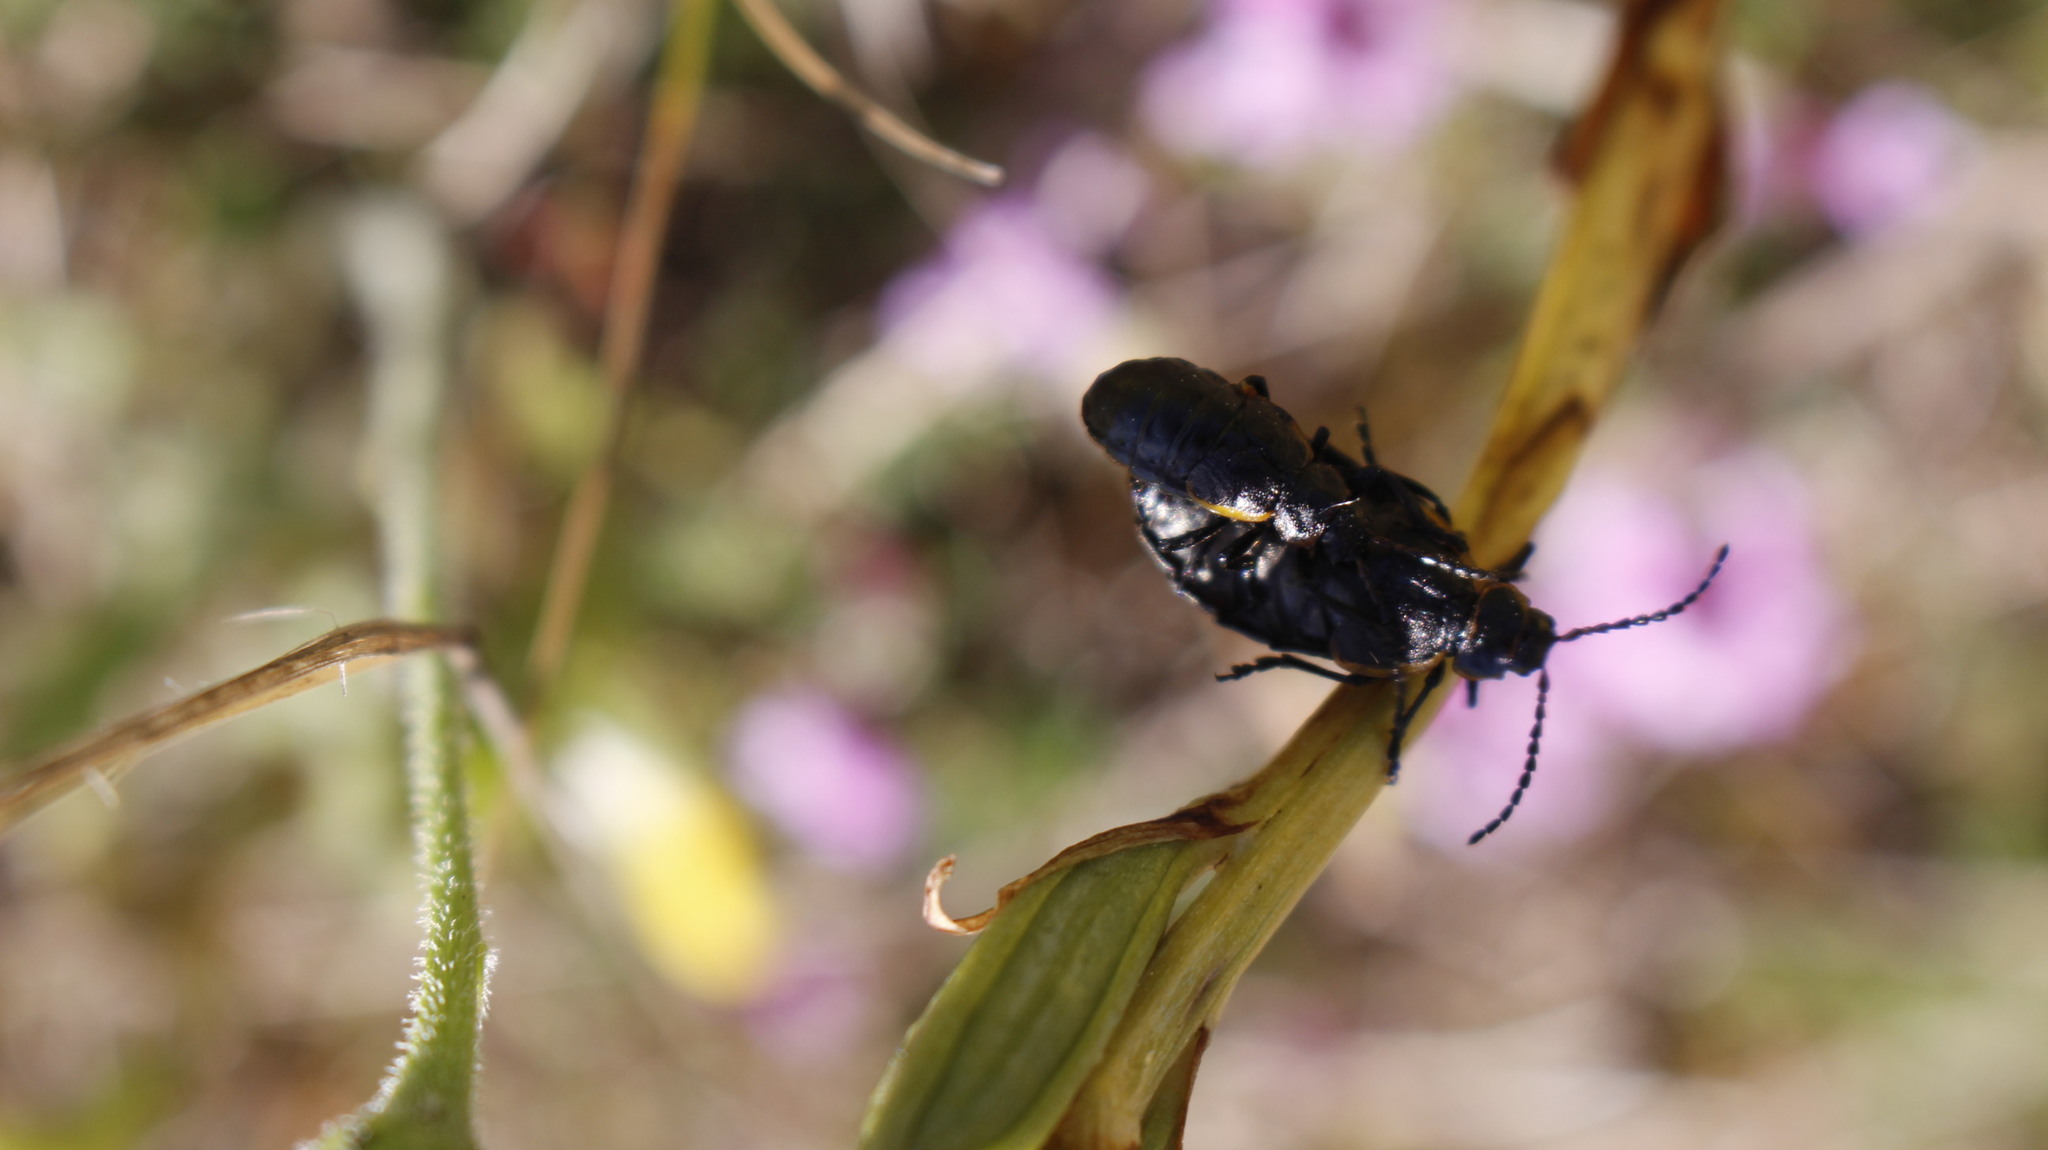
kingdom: Animalia
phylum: Arthropoda
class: Insecta
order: Coleoptera
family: Chrysomelidae
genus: Arima
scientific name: Arima marginata
